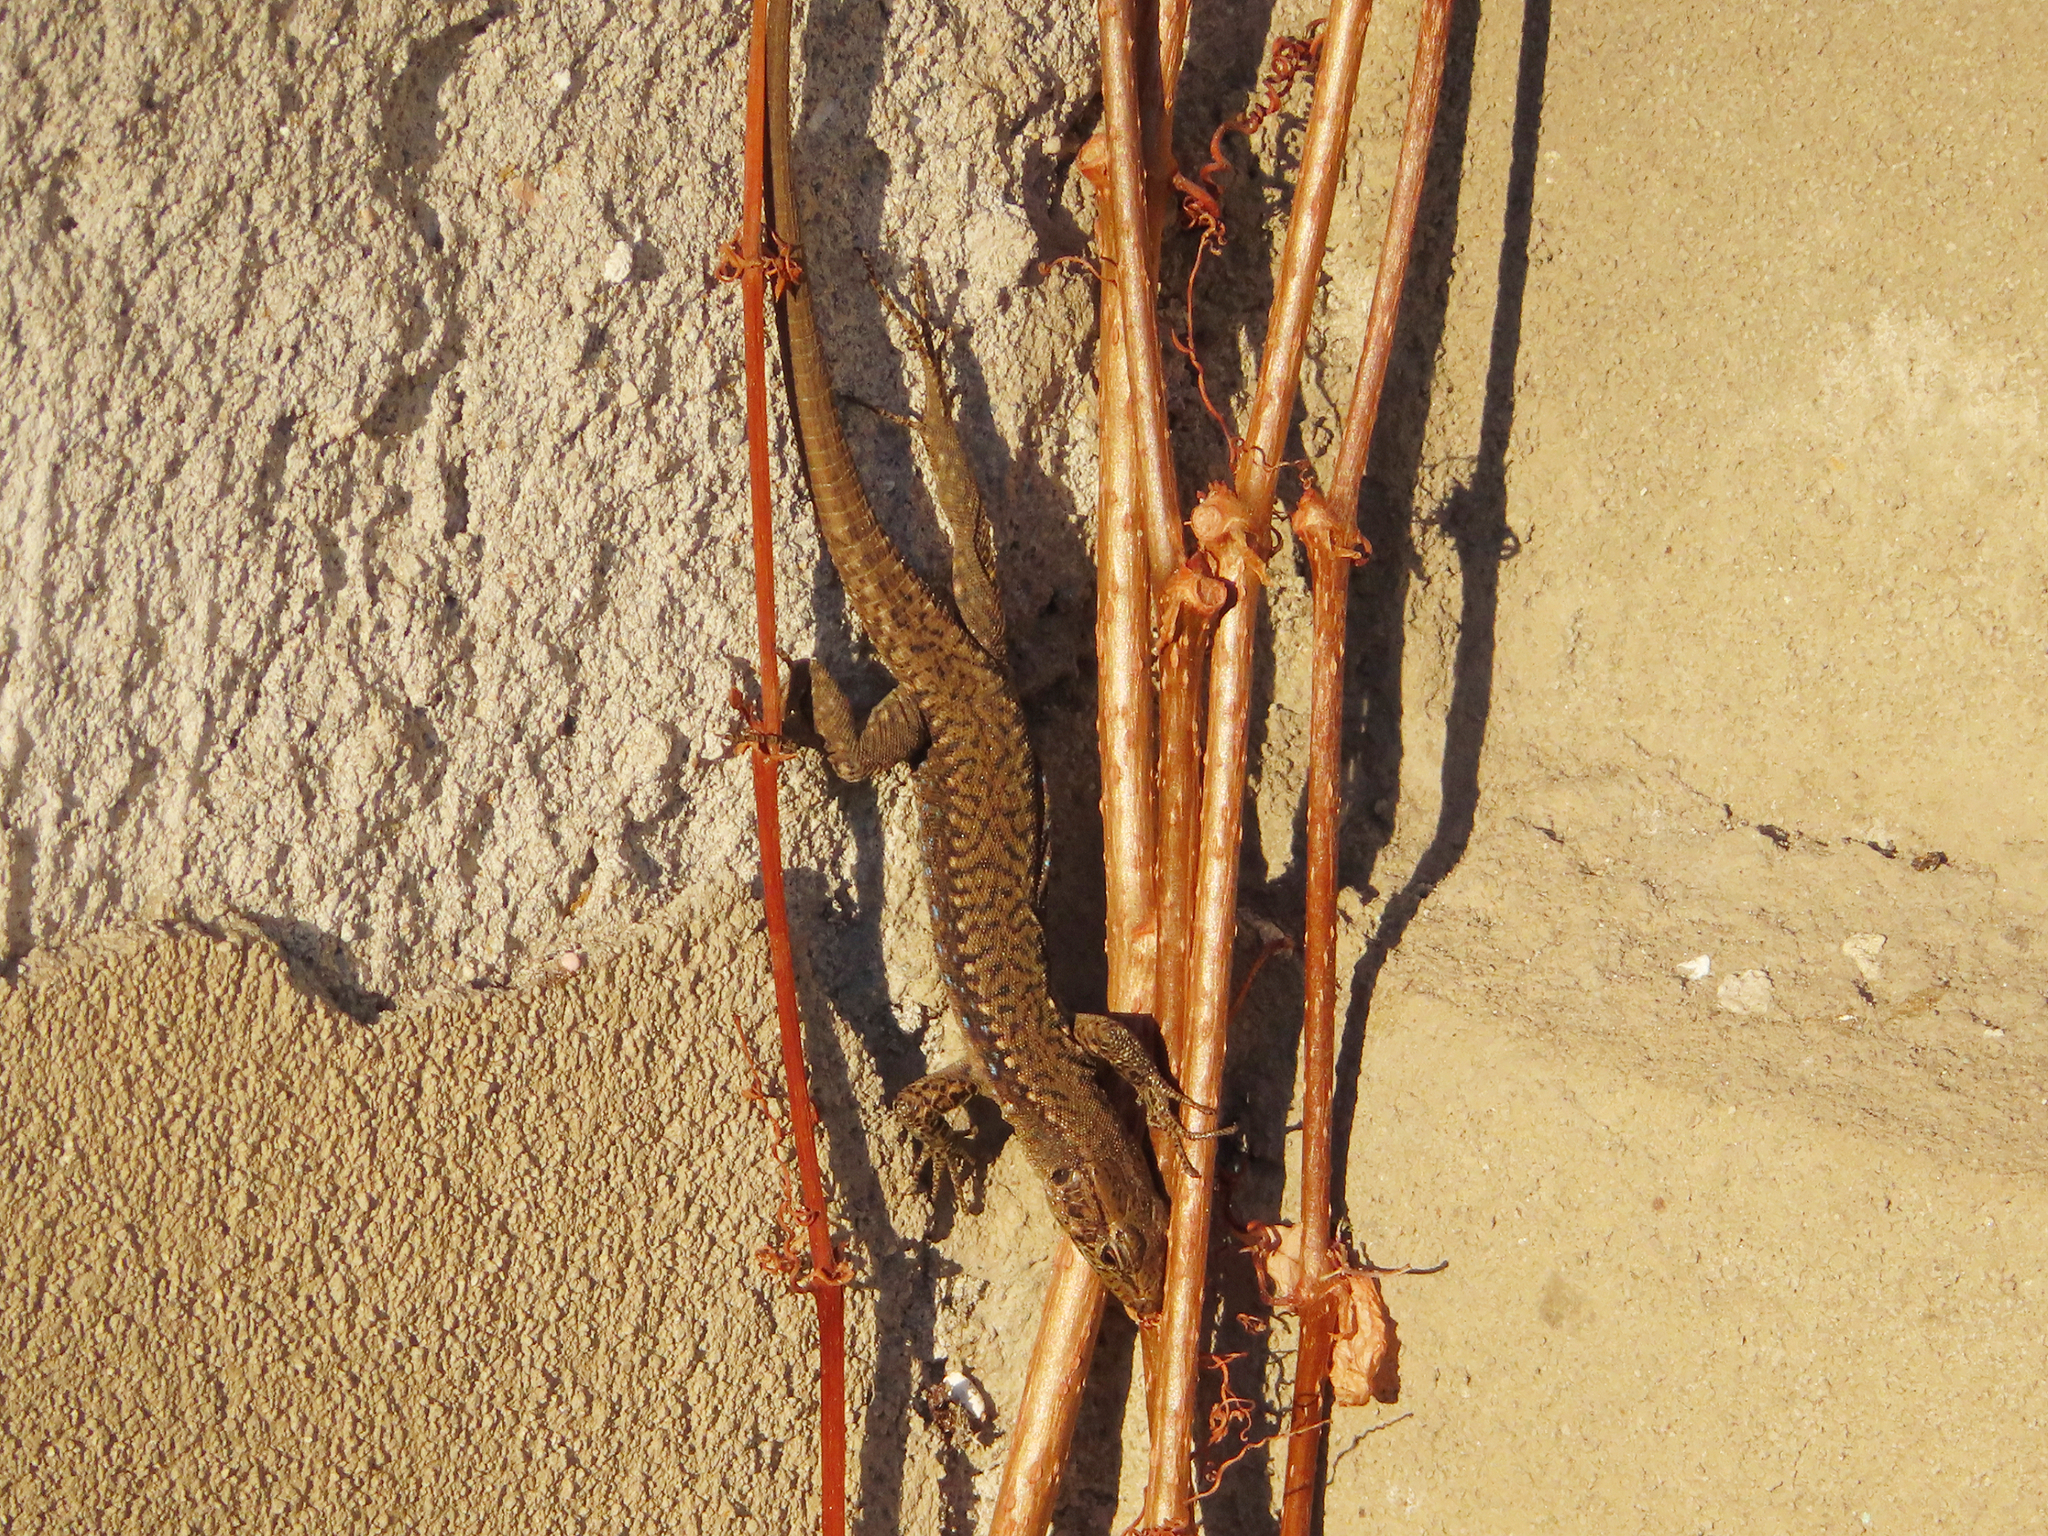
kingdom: Animalia
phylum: Chordata
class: Squamata
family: Lacertidae
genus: Darevskia
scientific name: Darevskia mixta
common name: Ajarian lizard
